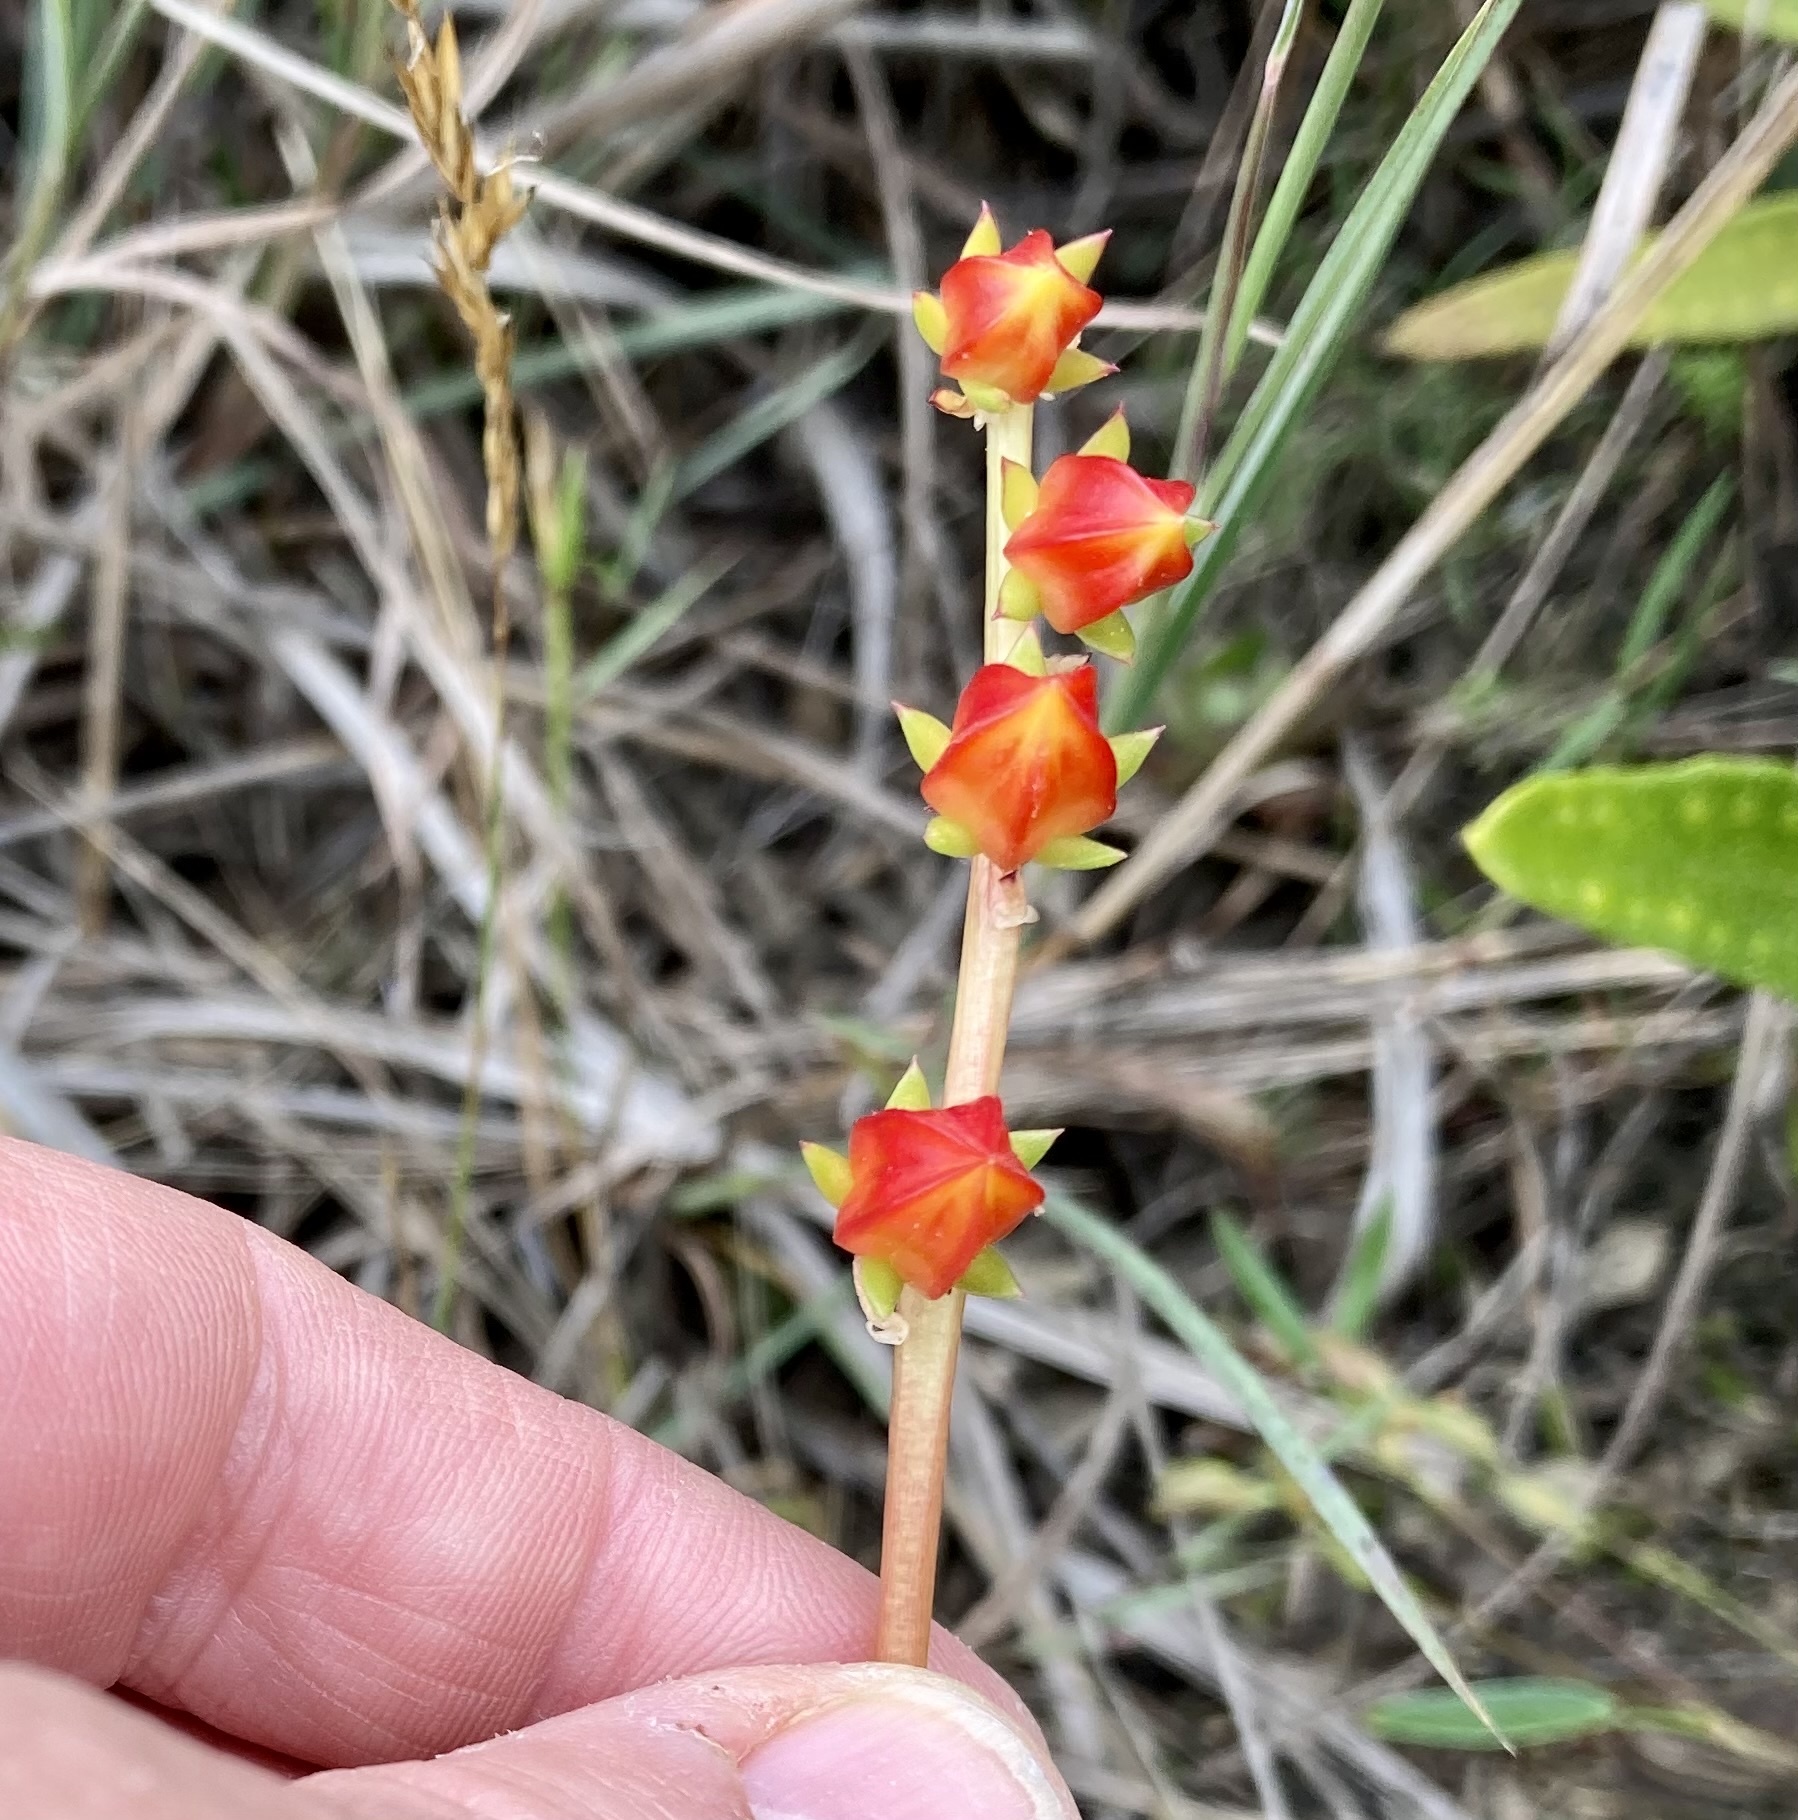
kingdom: Plantae
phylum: Tracheophyta
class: Magnoliopsida
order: Saxifragales
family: Crassulaceae
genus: Echeveria
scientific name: Echeveria bicolor
